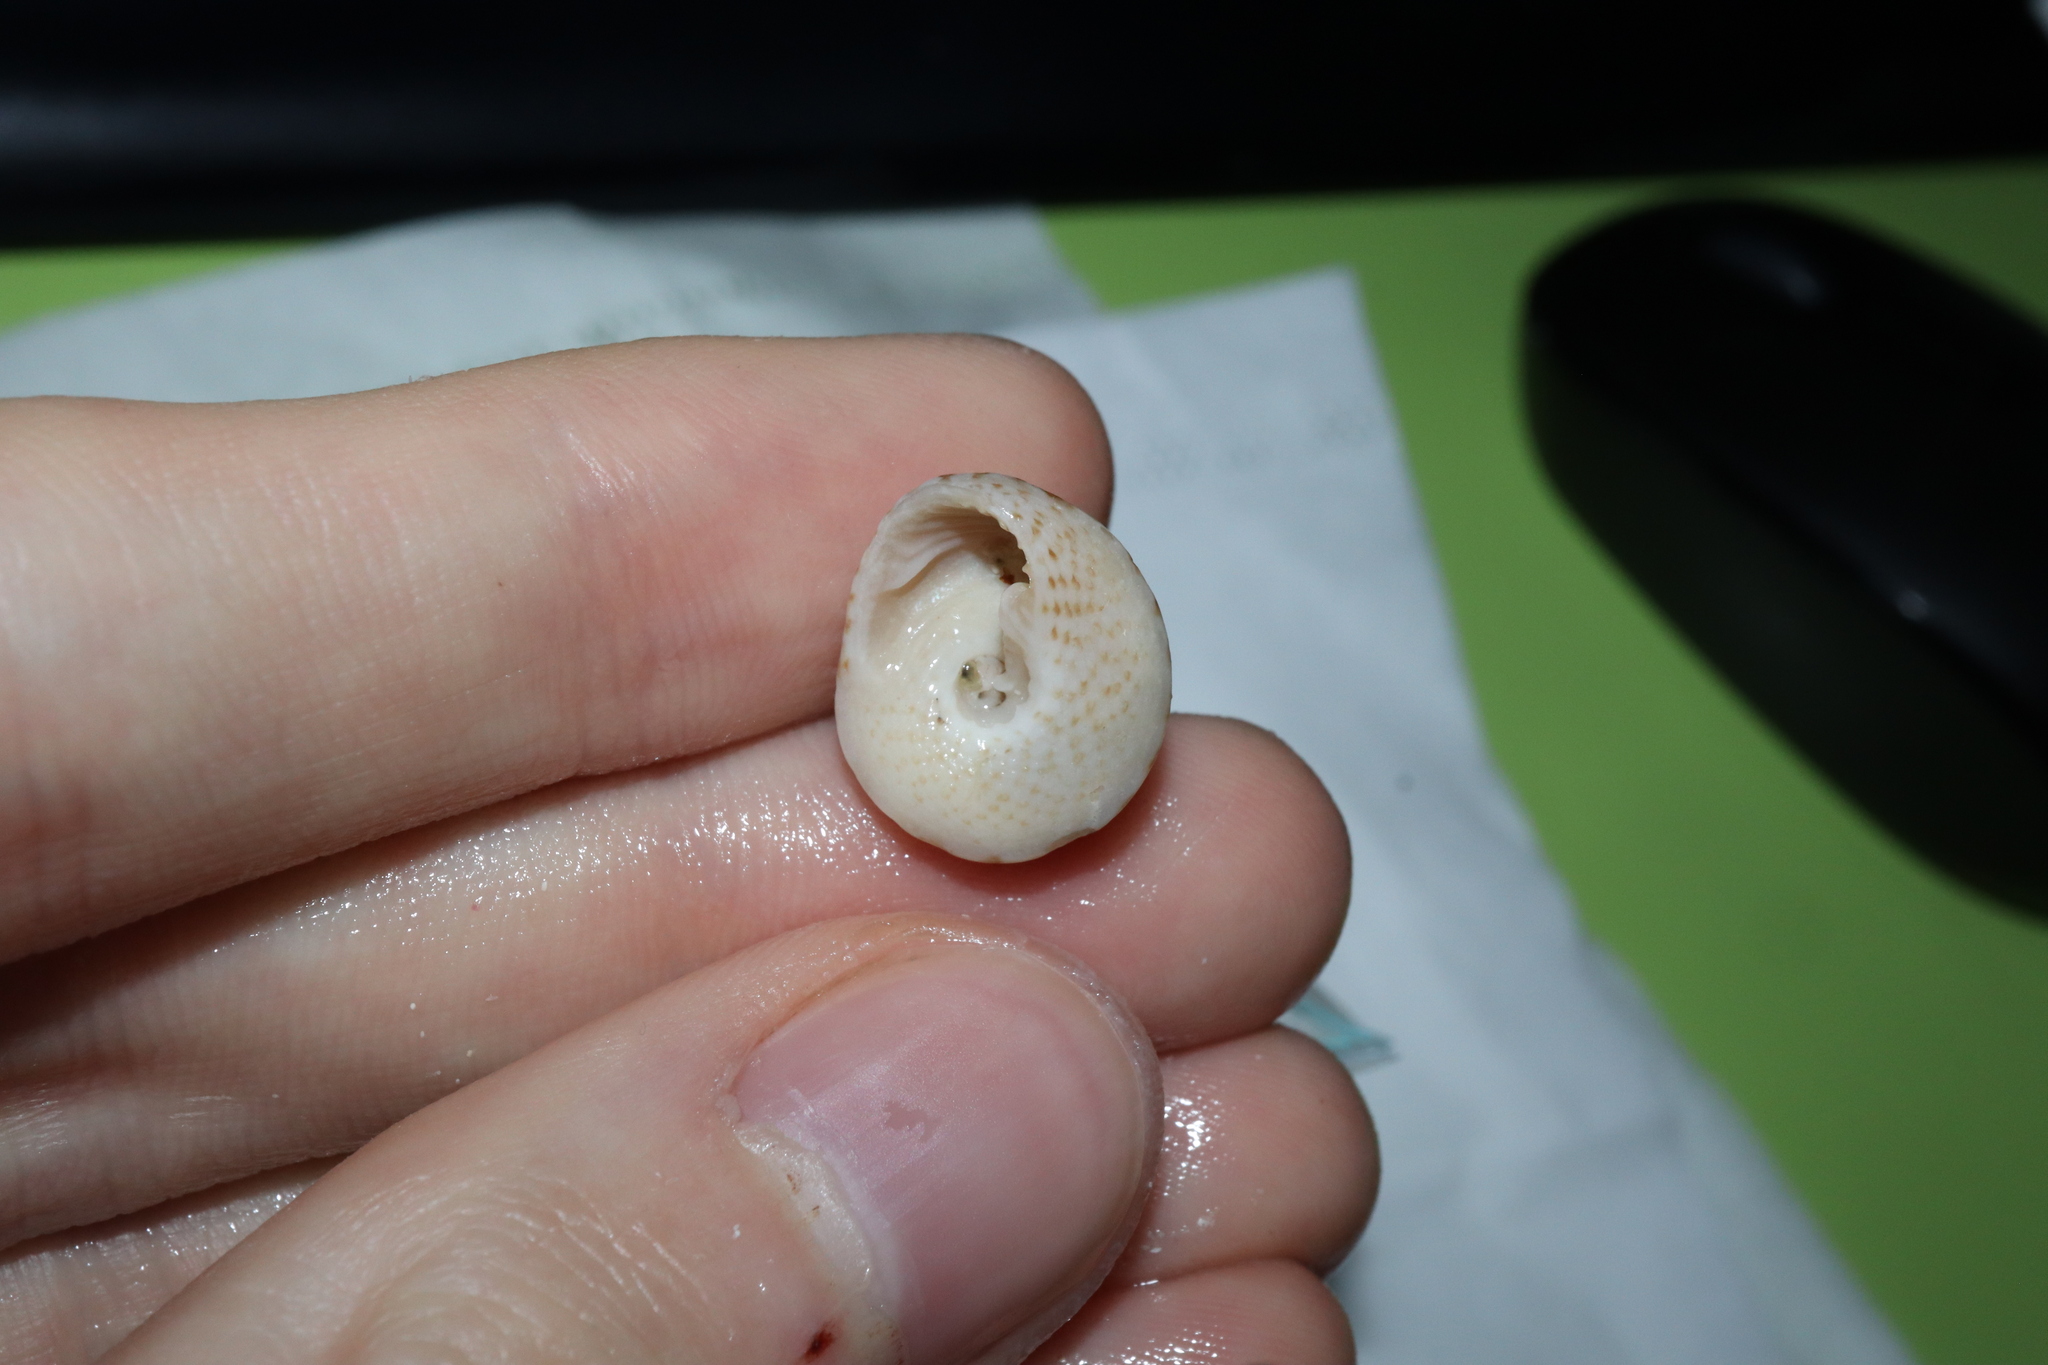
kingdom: Animalia
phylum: Mollusca
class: Gastropoda
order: Trochida
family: Trochidae
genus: Clanculus
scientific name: Clanculus limbatus
